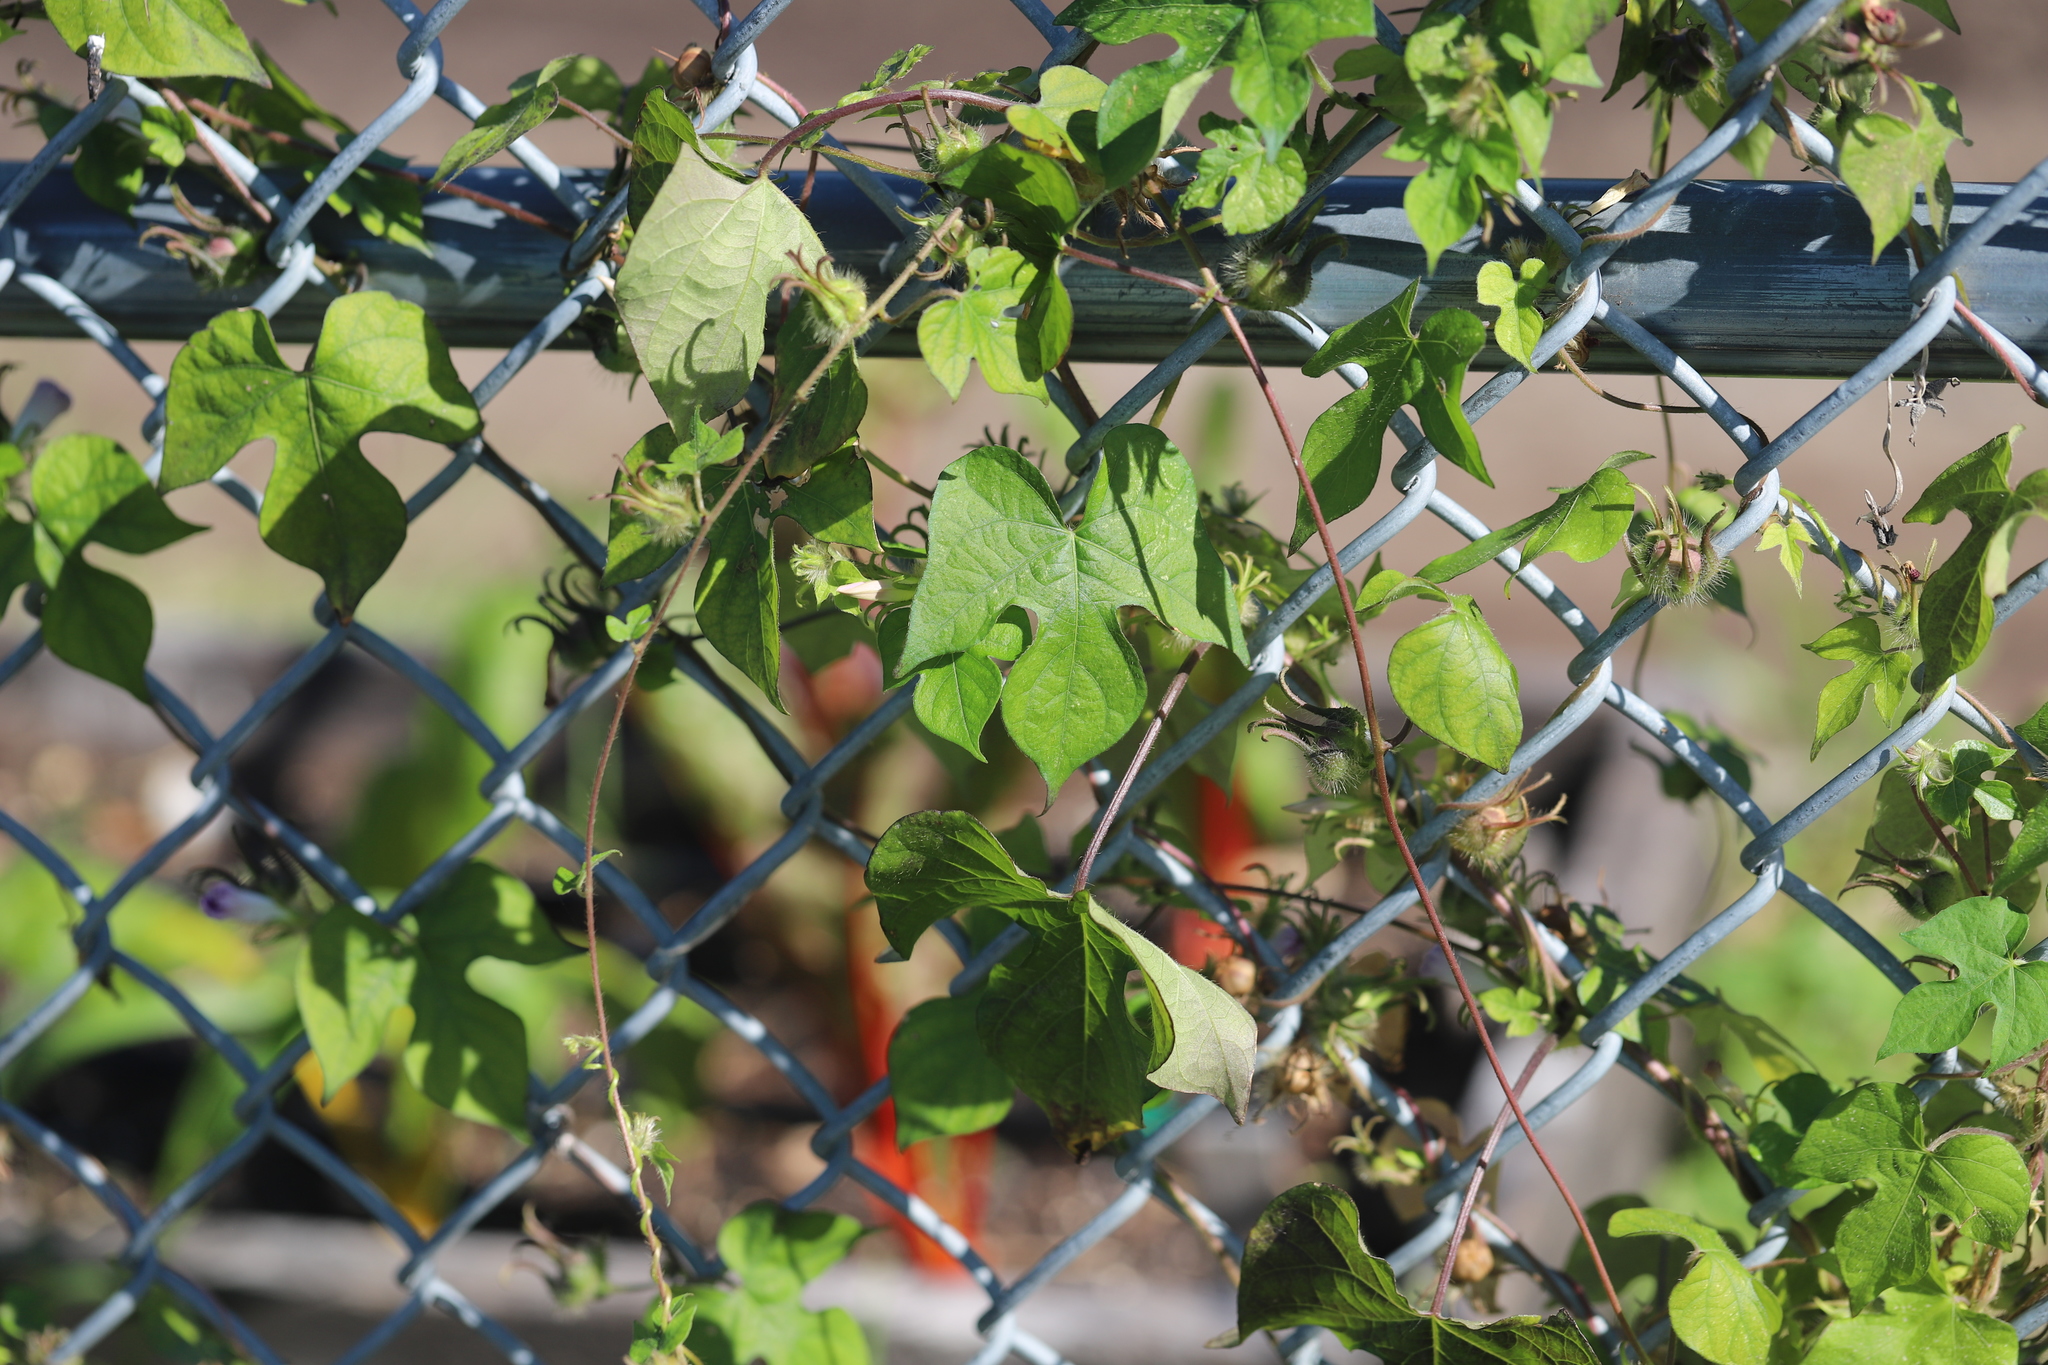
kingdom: Plantae
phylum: Tracheophyta
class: Magnoliopsida
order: Solanales
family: Convolvulaceae
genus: Ipomoea
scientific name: Ipomoea hederacea
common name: Ivy-leaved morning-glory
